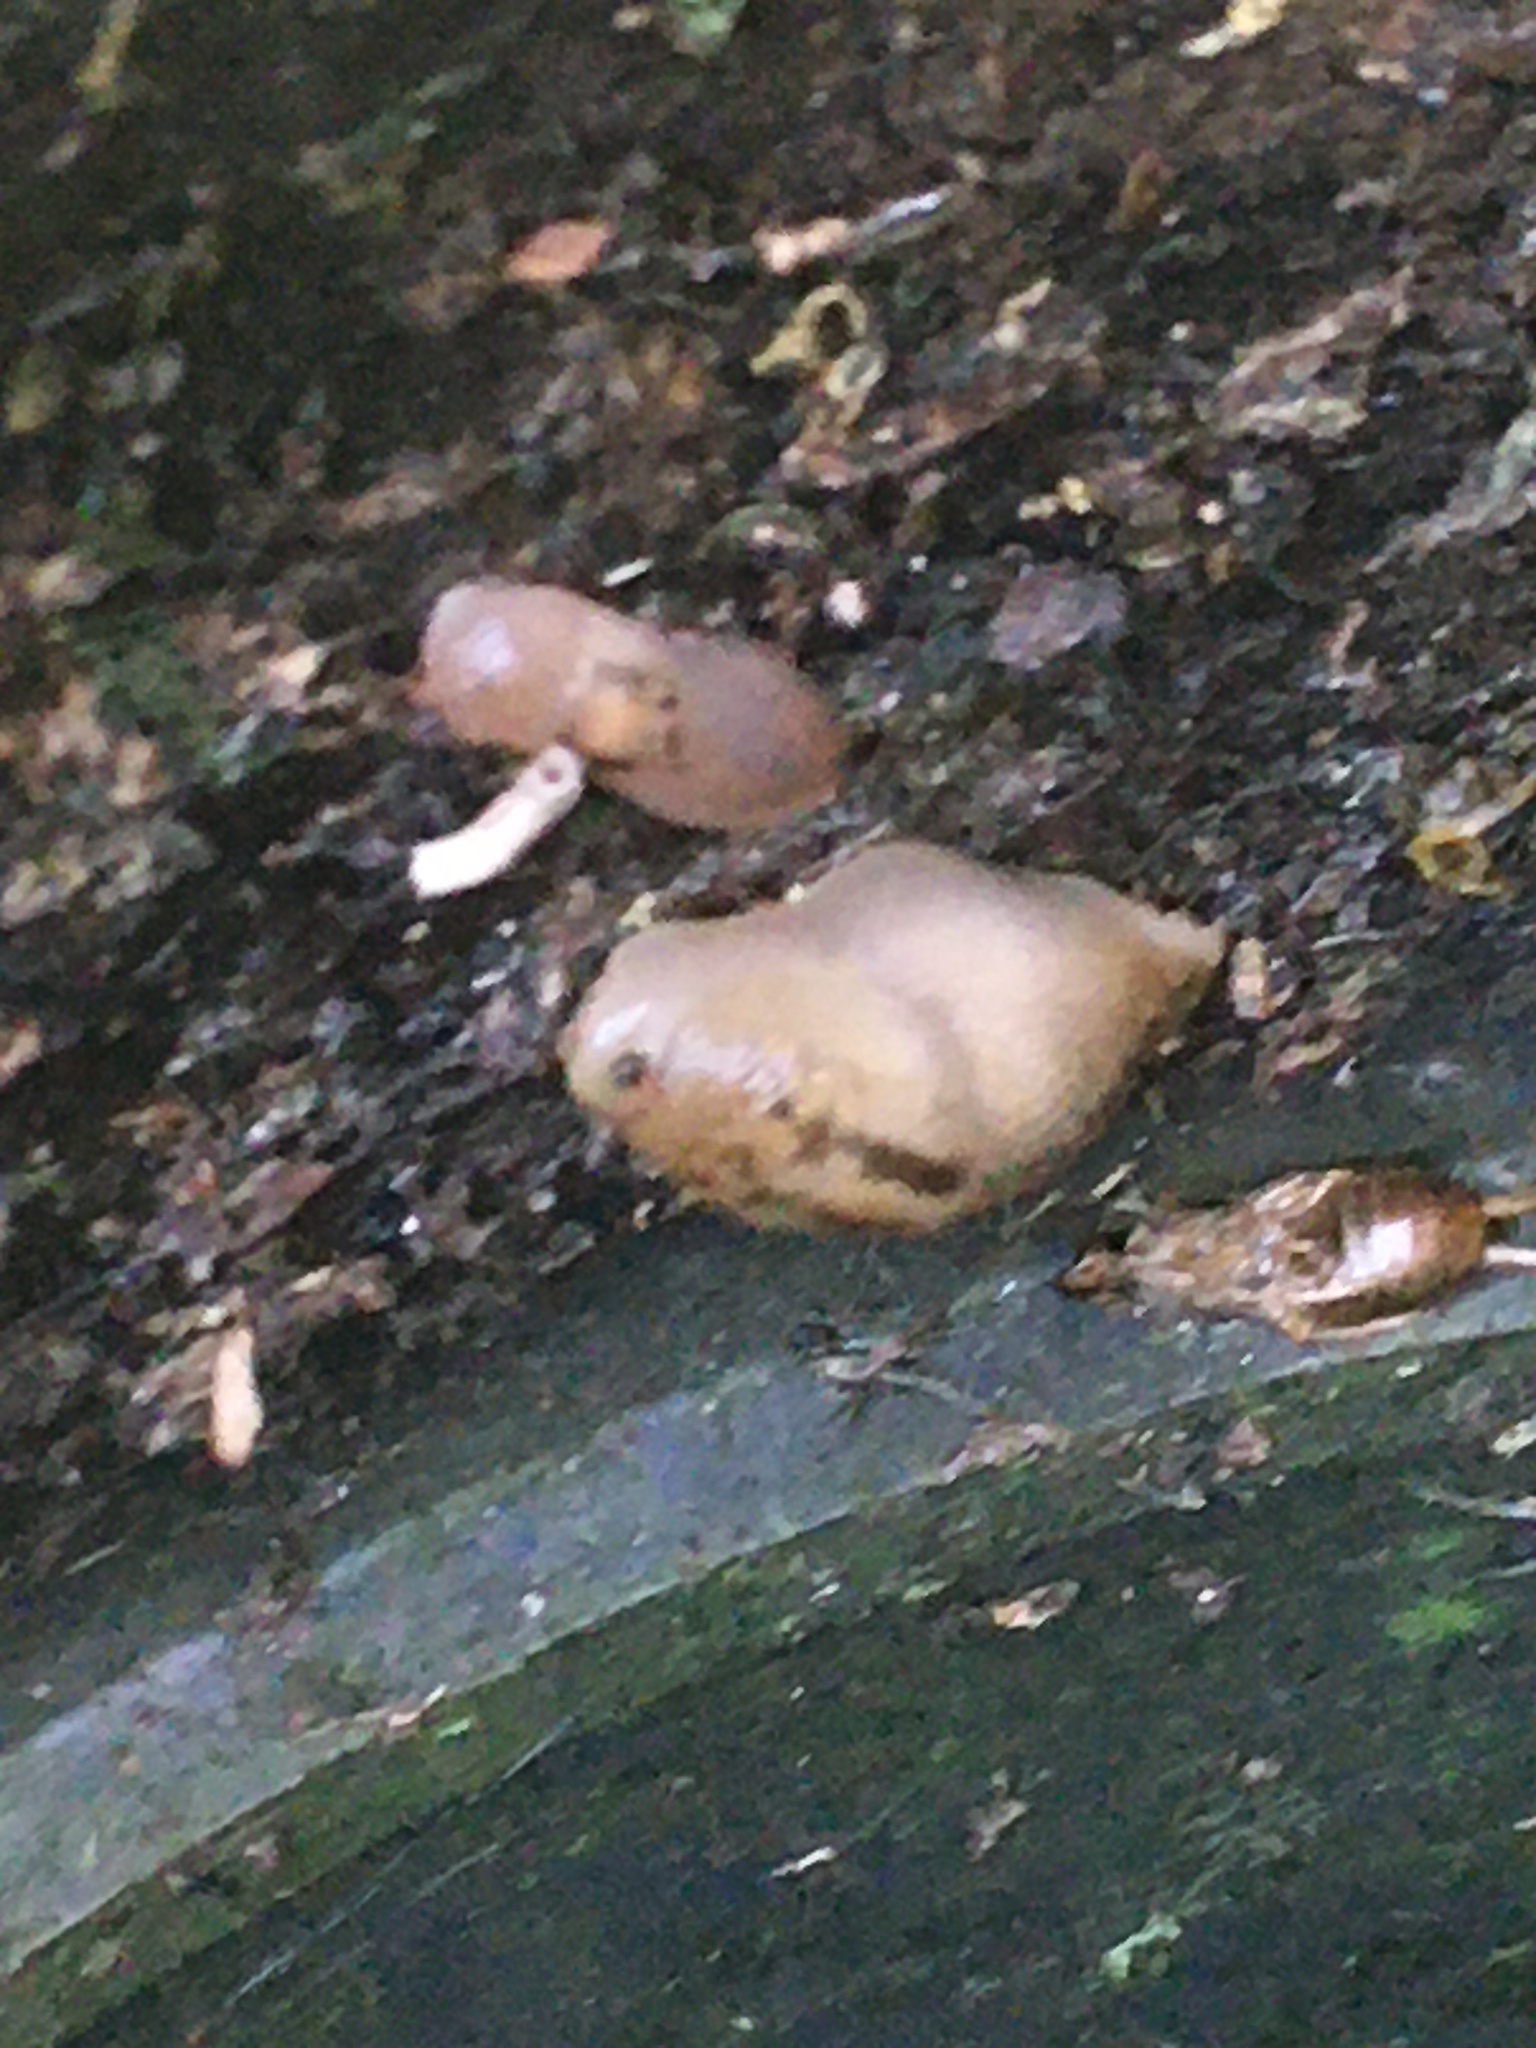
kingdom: Animalia
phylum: Mollusca
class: Gastropoda
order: Stylommatophora
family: Limacidae
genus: Ambigolimax
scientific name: Ambigolimax
